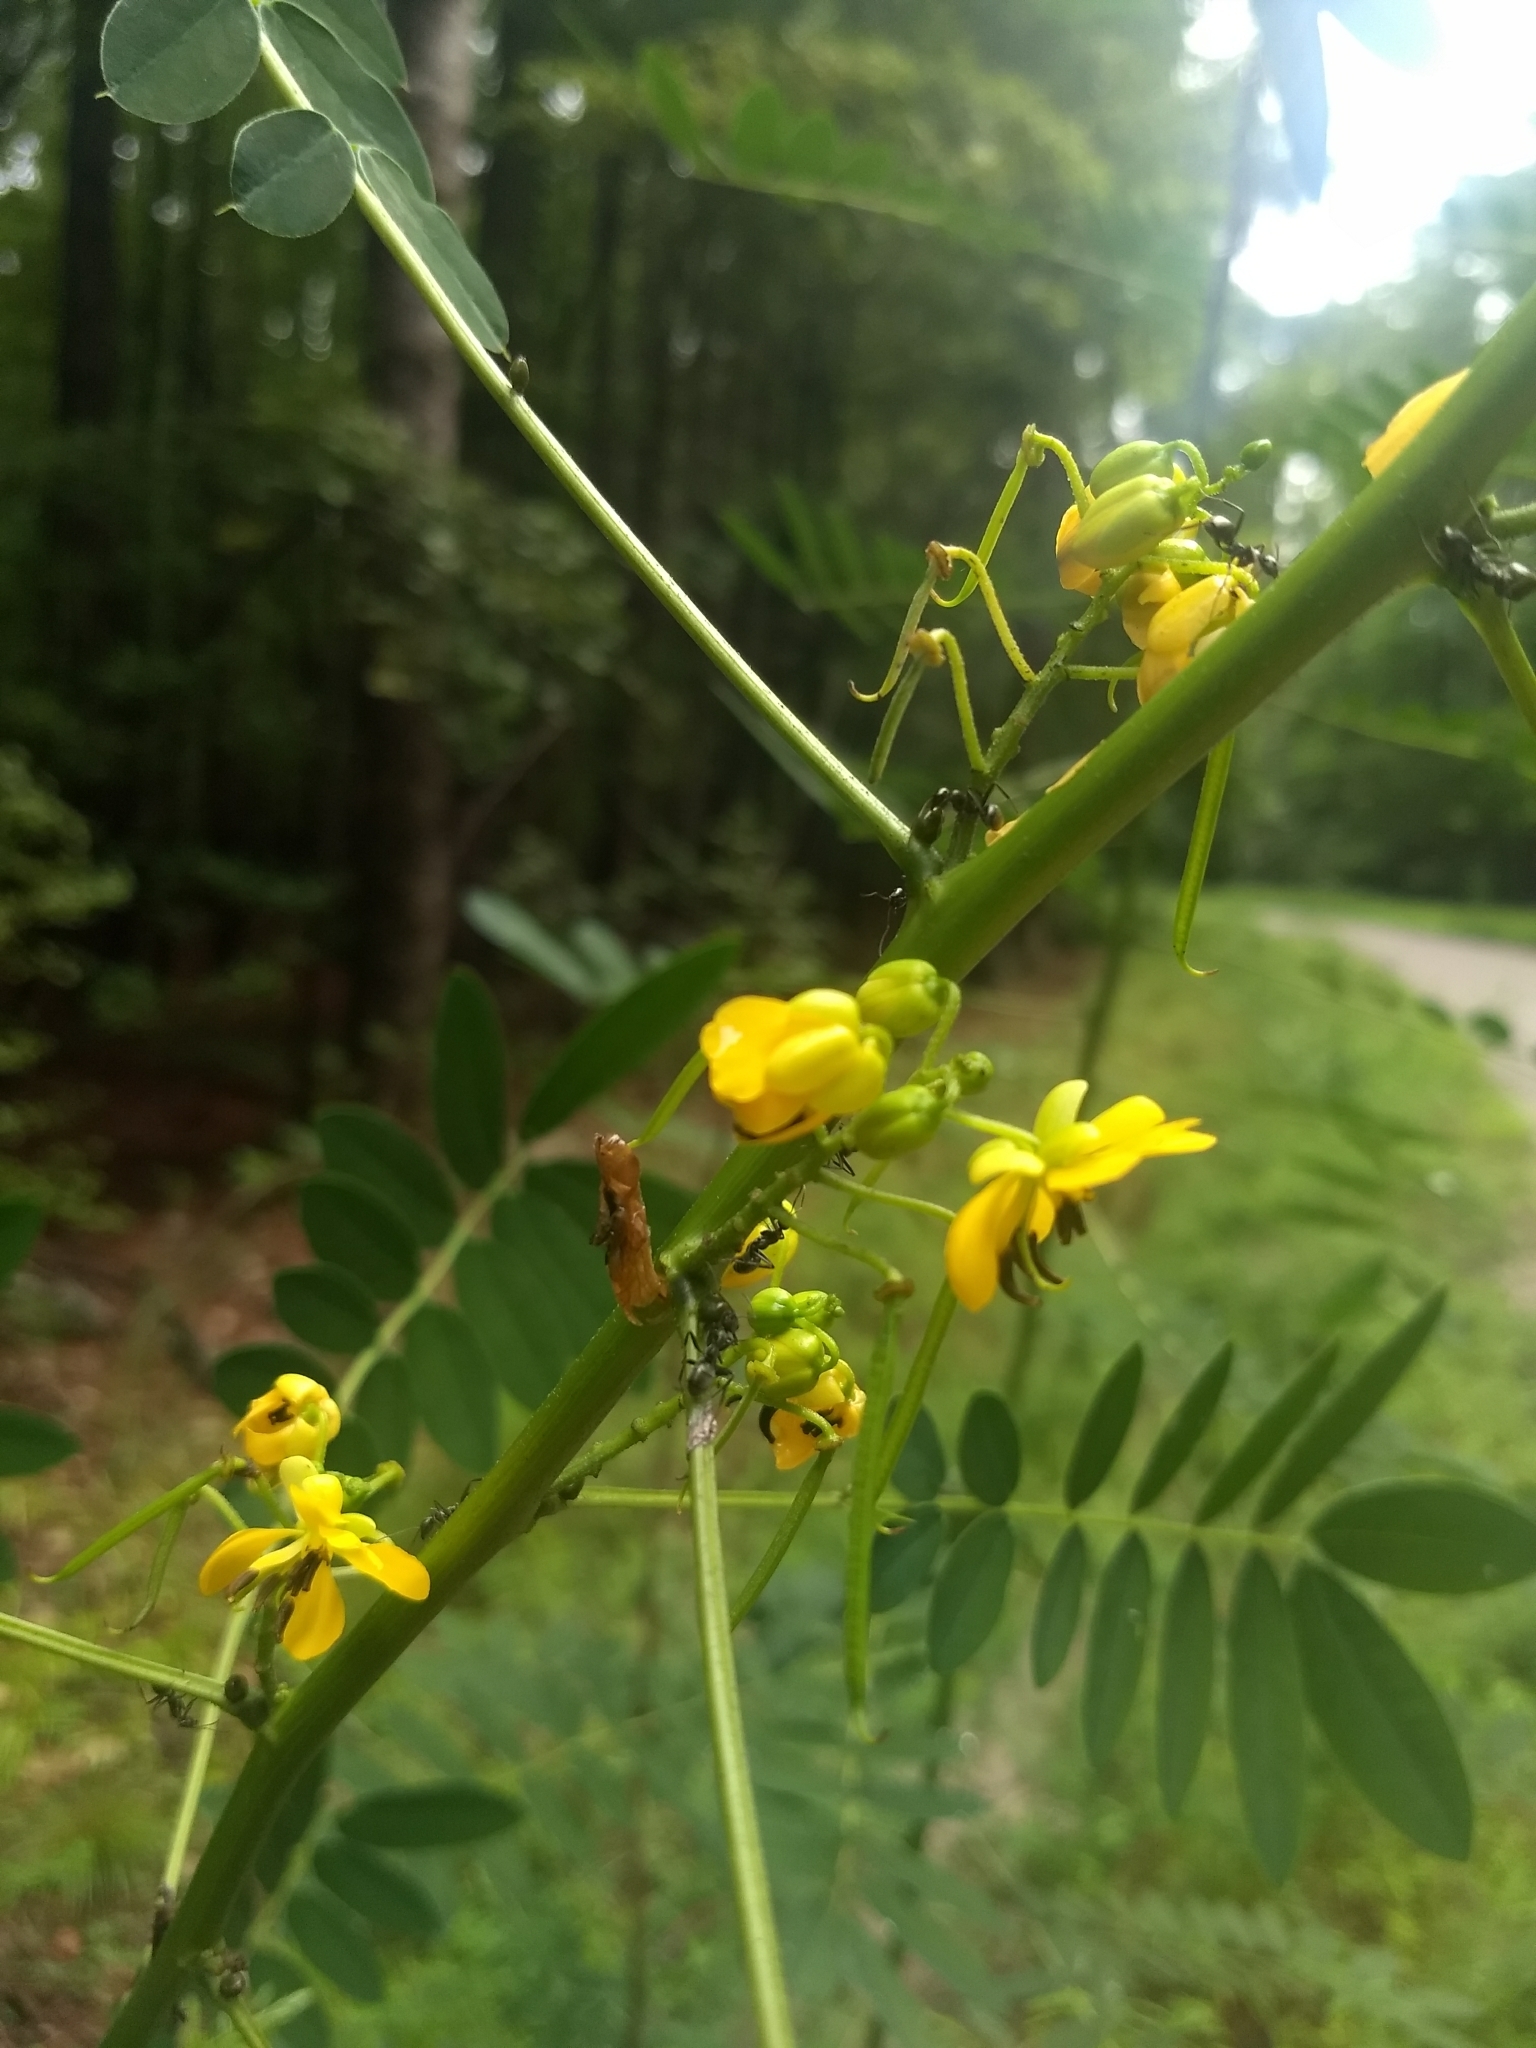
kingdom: Plantae
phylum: Tracheophyta
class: Magnoliopsida
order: Fabales
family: Fabaceae
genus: Senna
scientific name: Senna marilandica
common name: American senna
